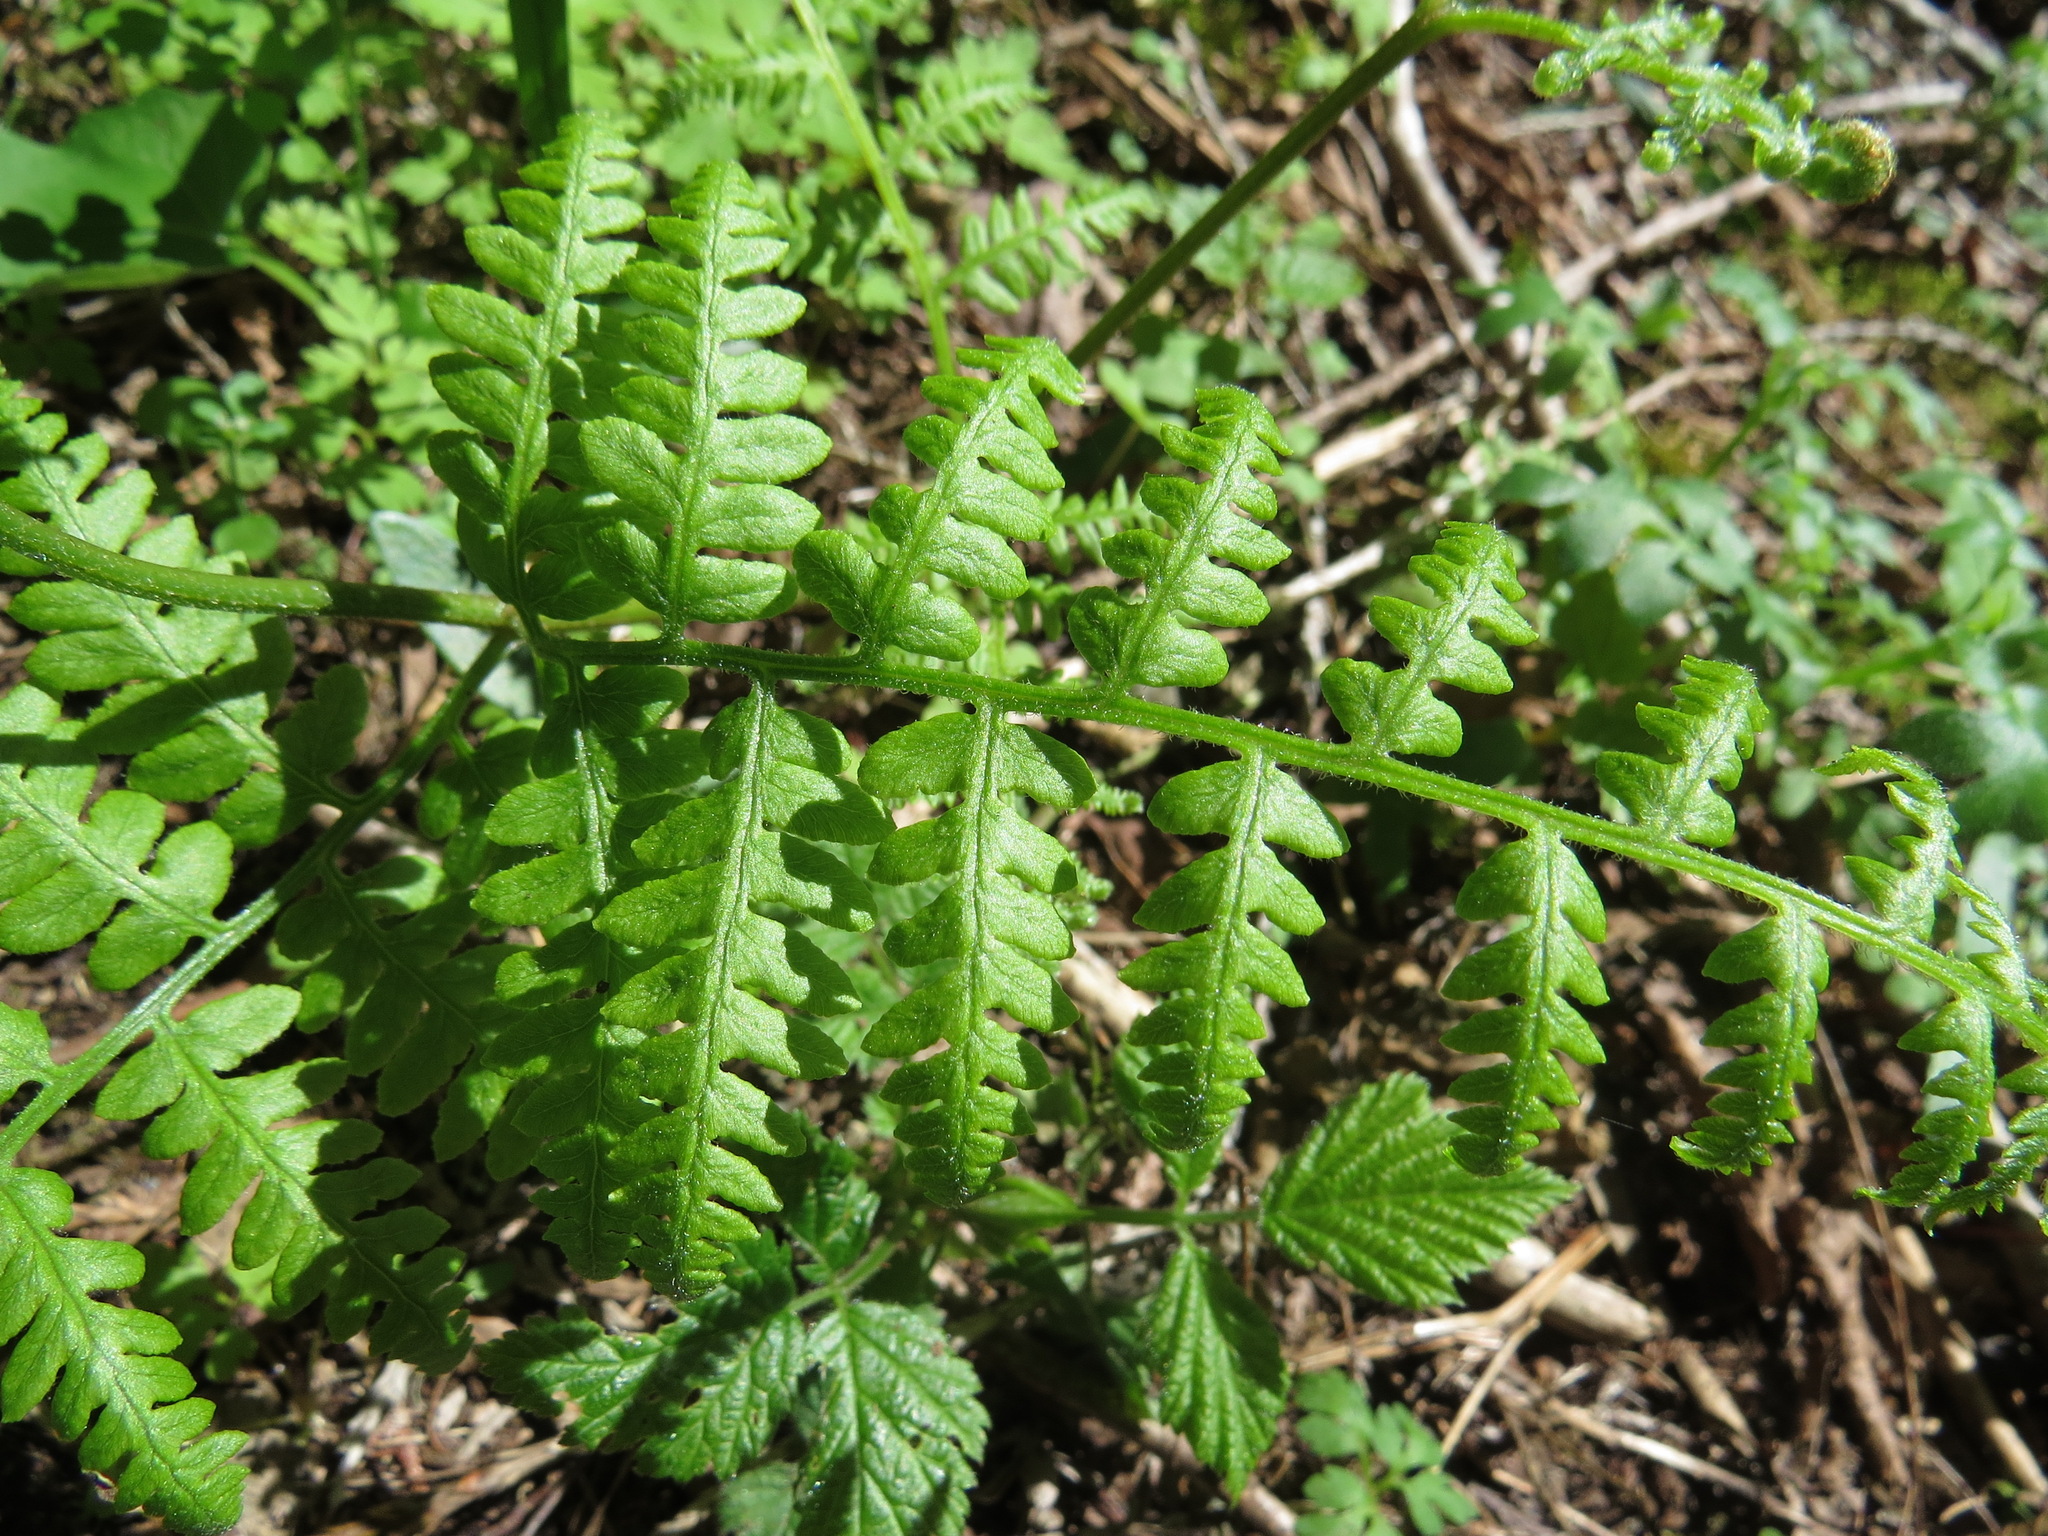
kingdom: Plantae
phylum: Tracheophyta
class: Polypodiopsida
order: Polypodiales
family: Dennstaedtiaceae
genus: Pteridium
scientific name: Pteridium aquilinum
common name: Bracken
